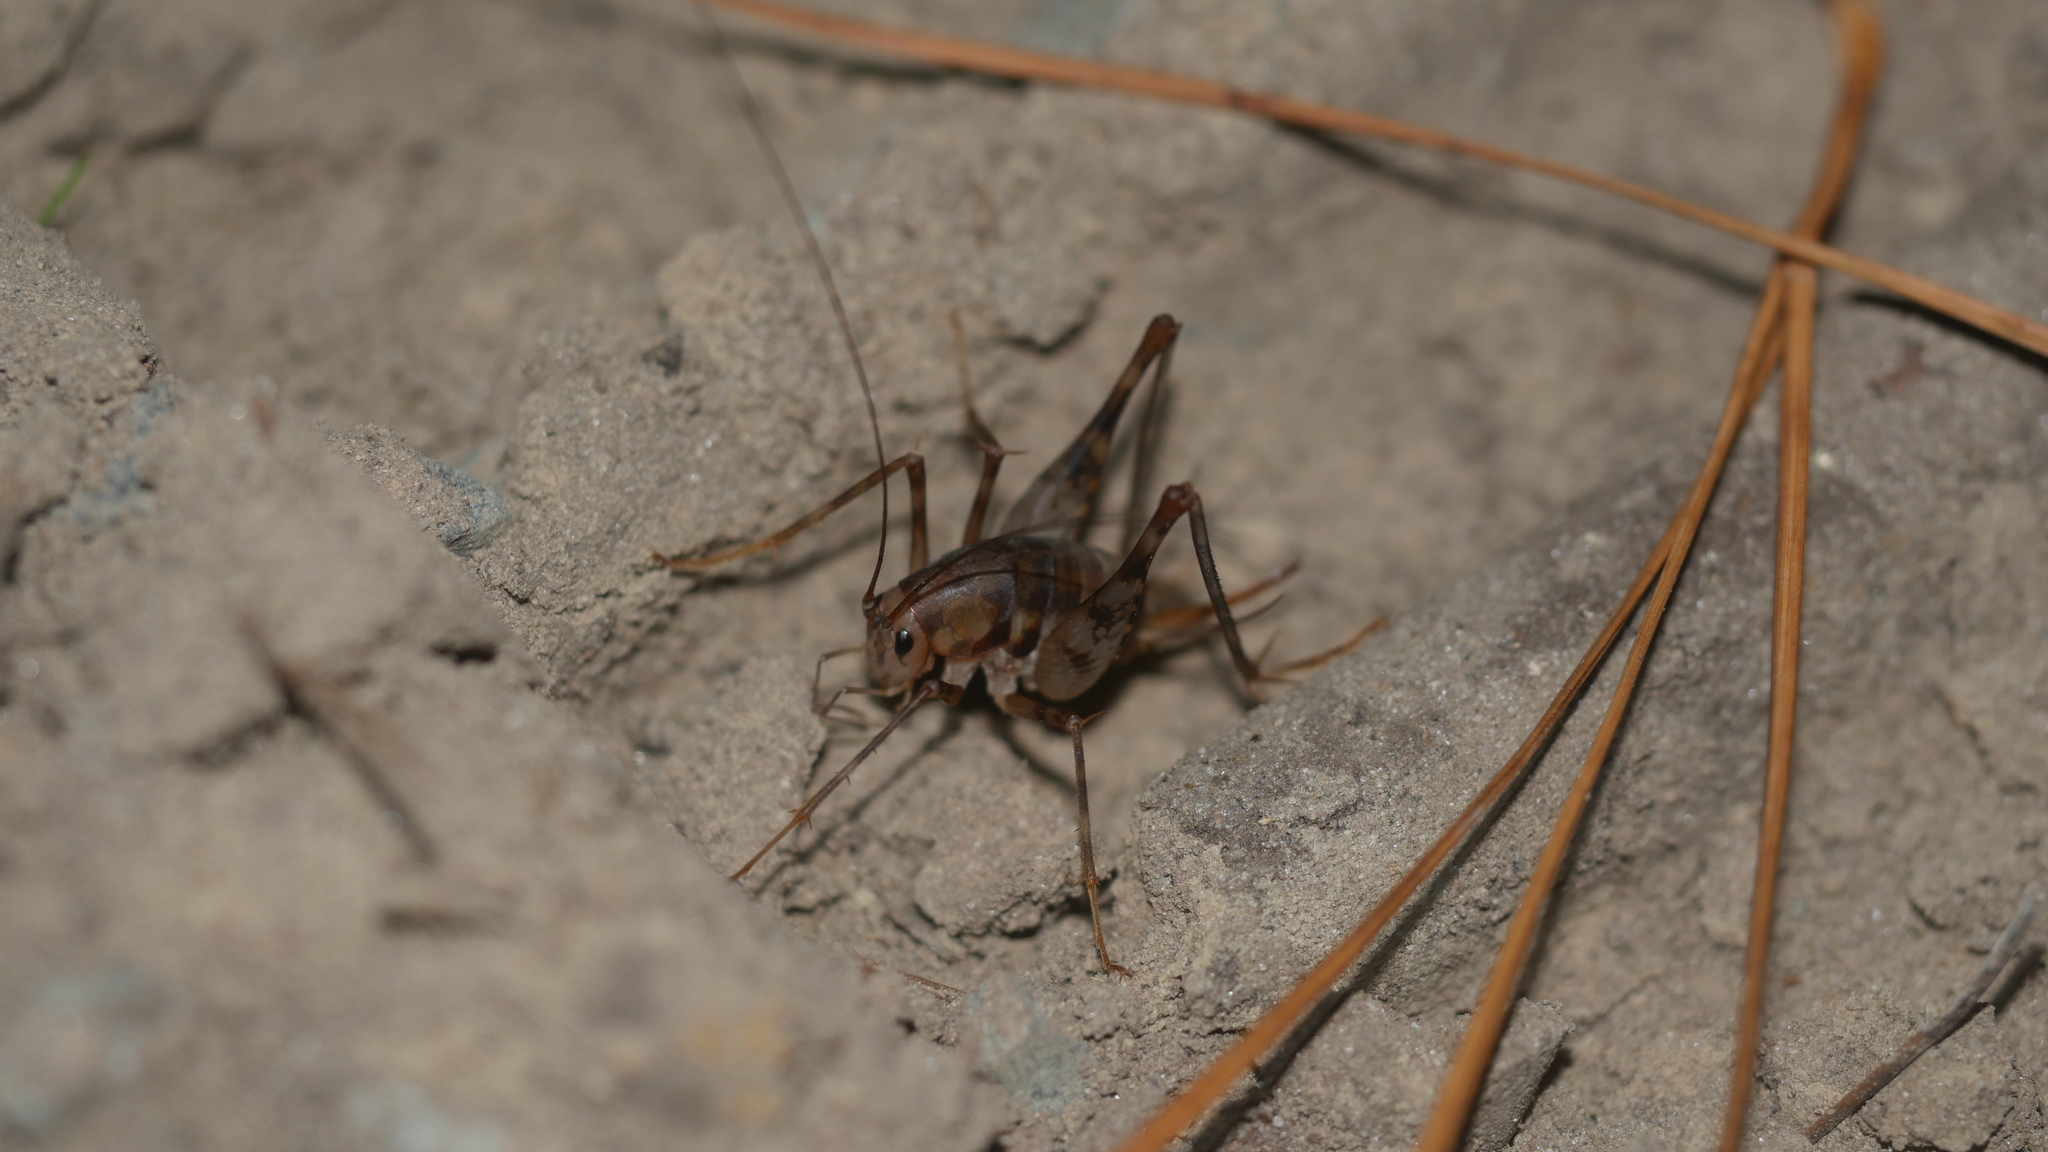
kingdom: Animalia
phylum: Arthropoda
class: Insecta
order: Orthoptera
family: Rhaphidophoridae
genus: Tachycines
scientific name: Tachycines asynamorus
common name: Greenhouse camel cricket
